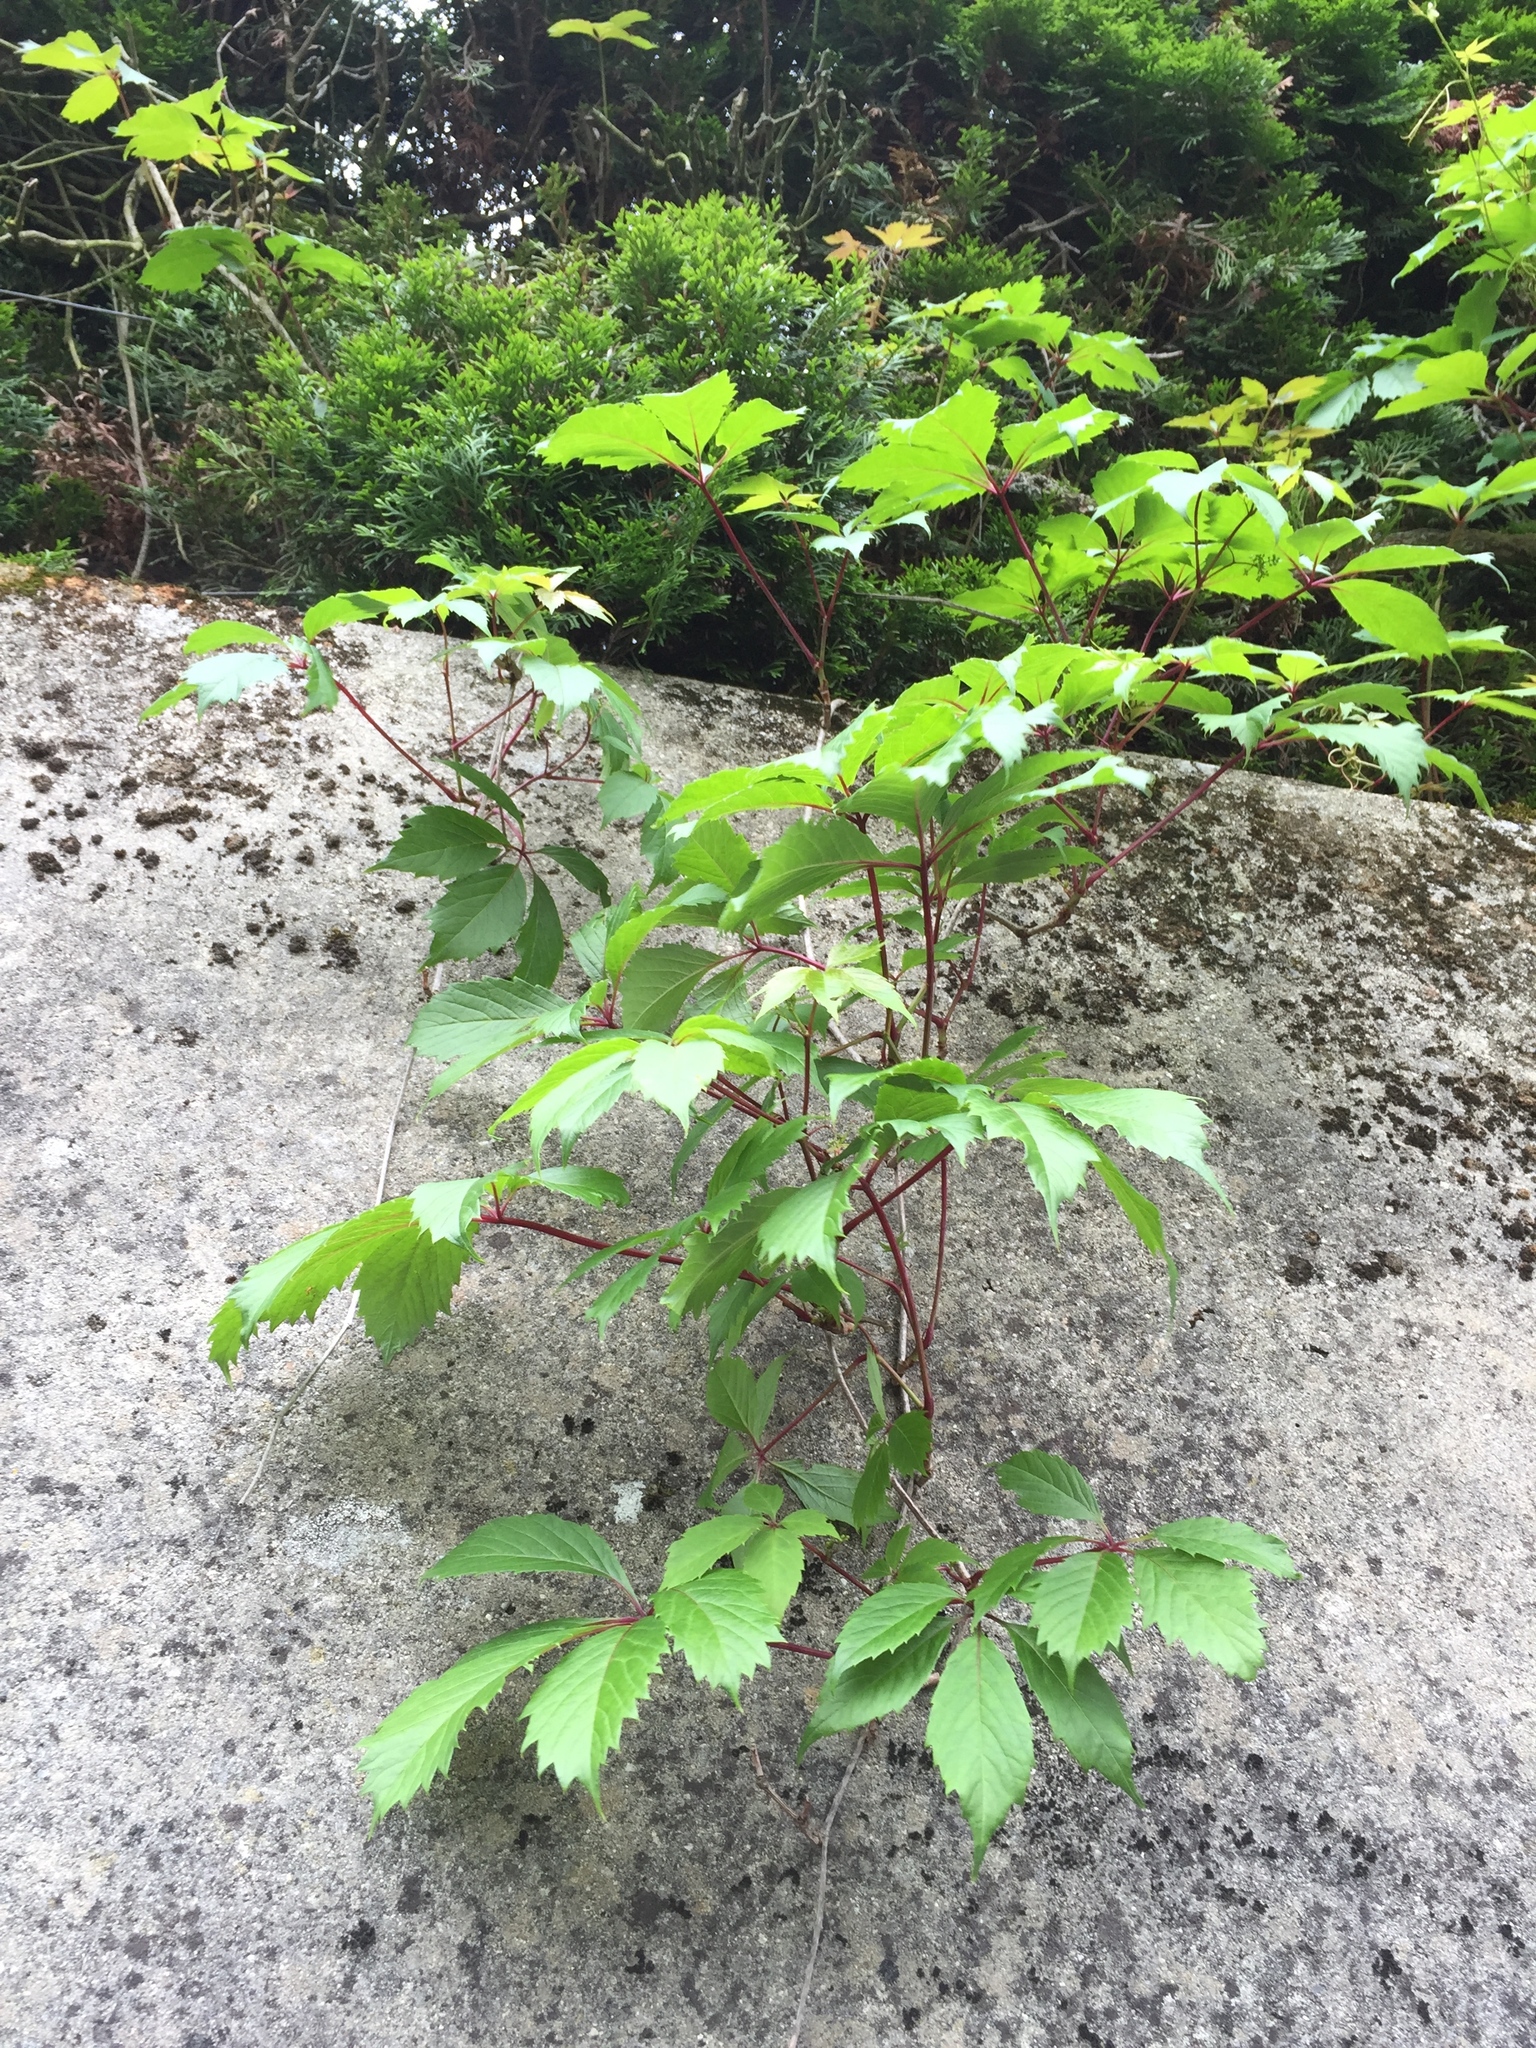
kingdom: Plantae
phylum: Tracheophyta
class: Magnoliopsida
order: Vitales
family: Vitaceae
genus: Parthenocissus
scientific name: Parthenocissus quinquefolia
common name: Virginia-creeper
